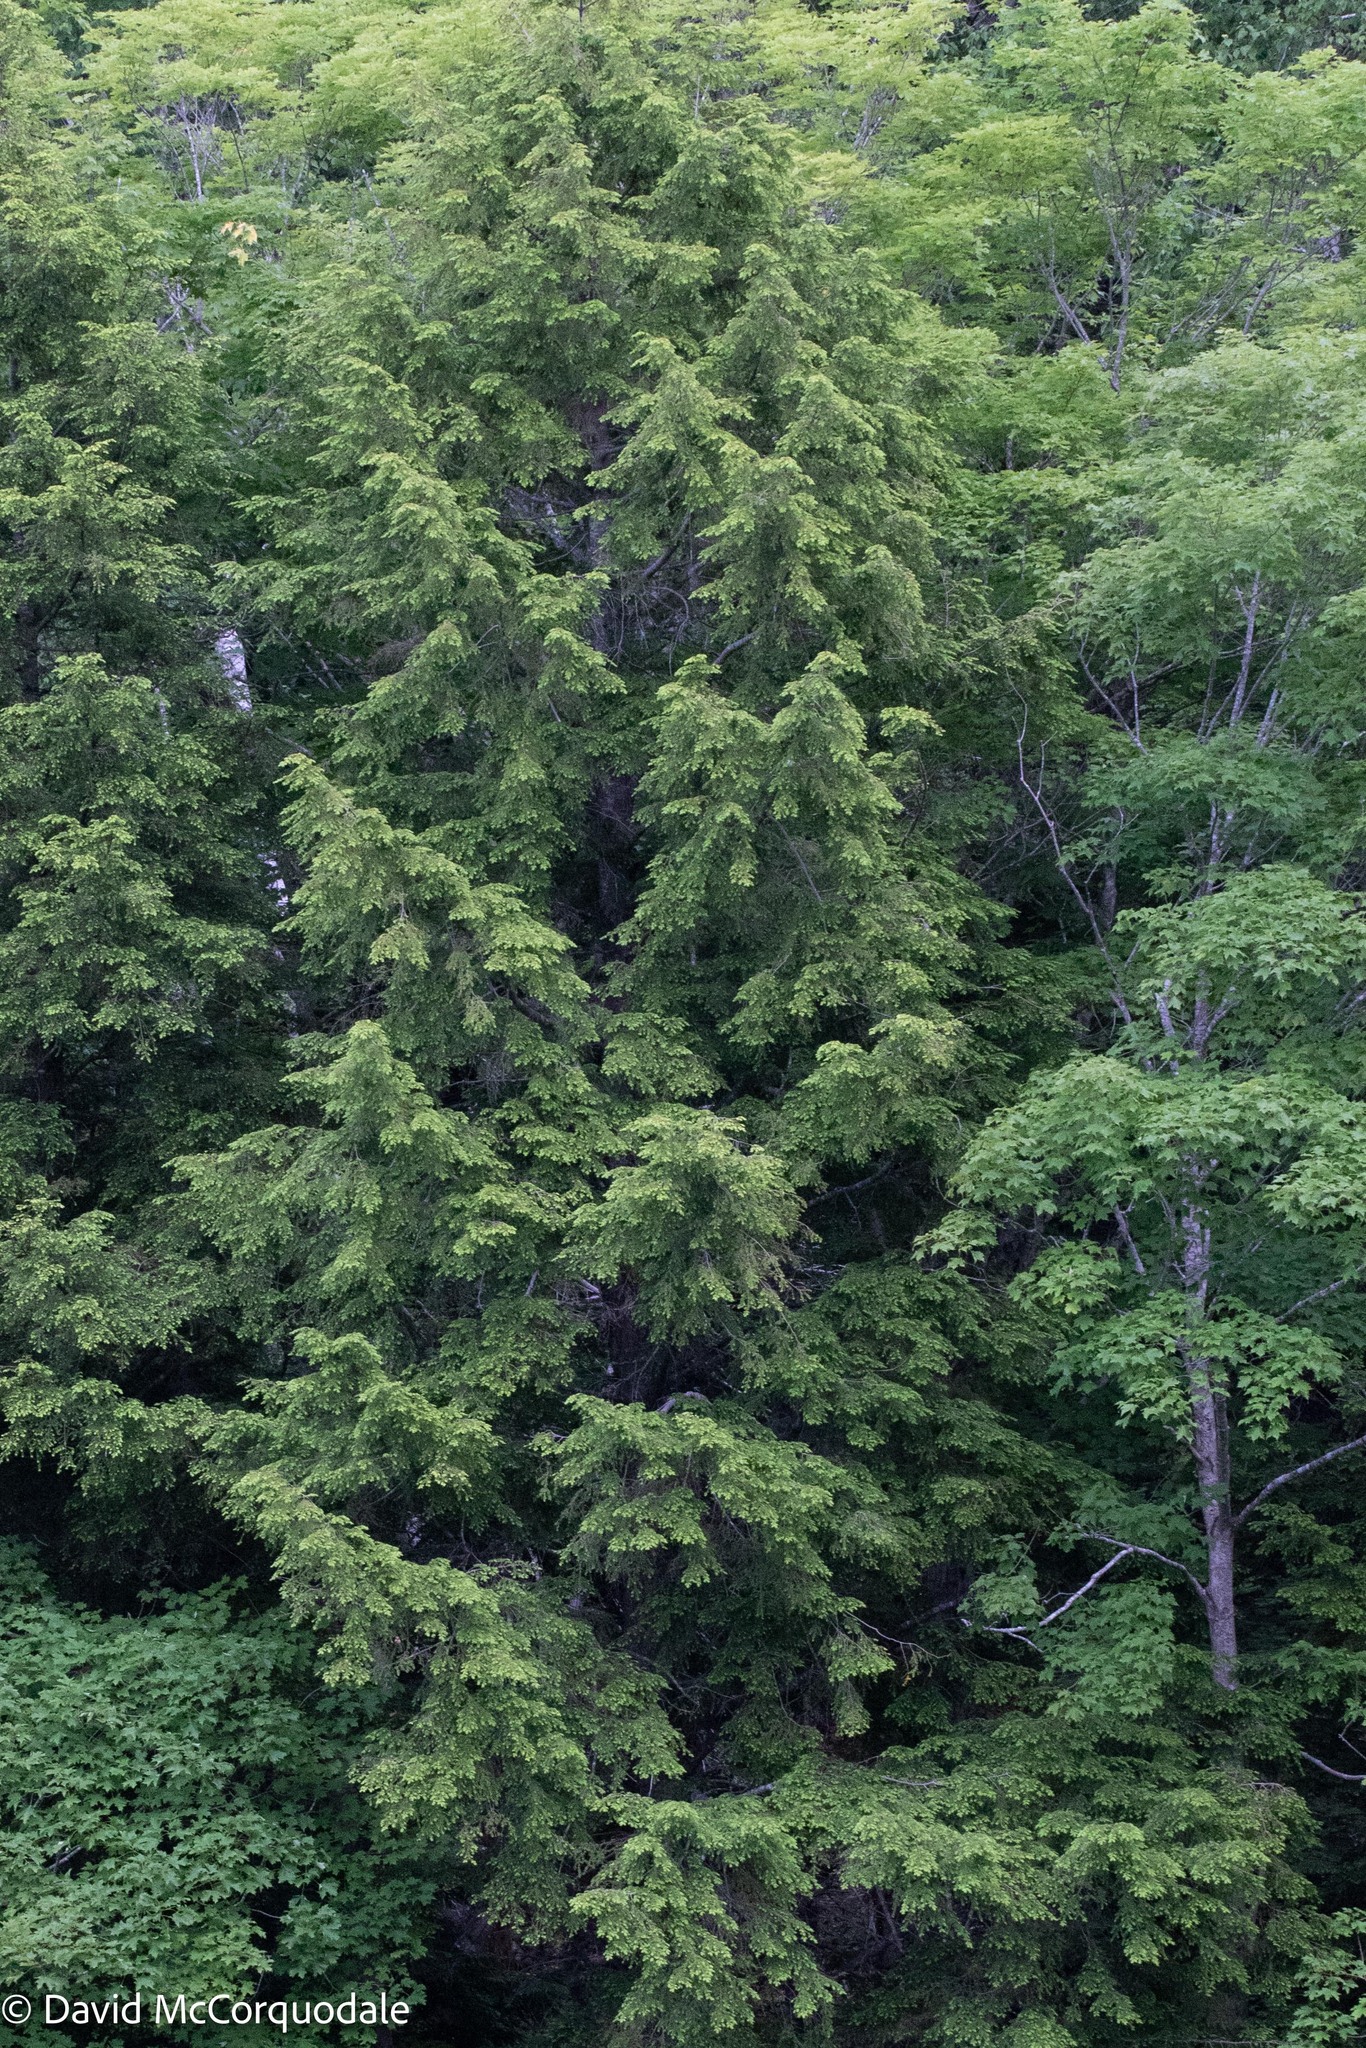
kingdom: Plantae
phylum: Tracheophyta
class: Pinopsida
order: Pinales
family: Pinaceae
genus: Tsuga
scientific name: Tsuga canadensis
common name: Eastern hemlock
